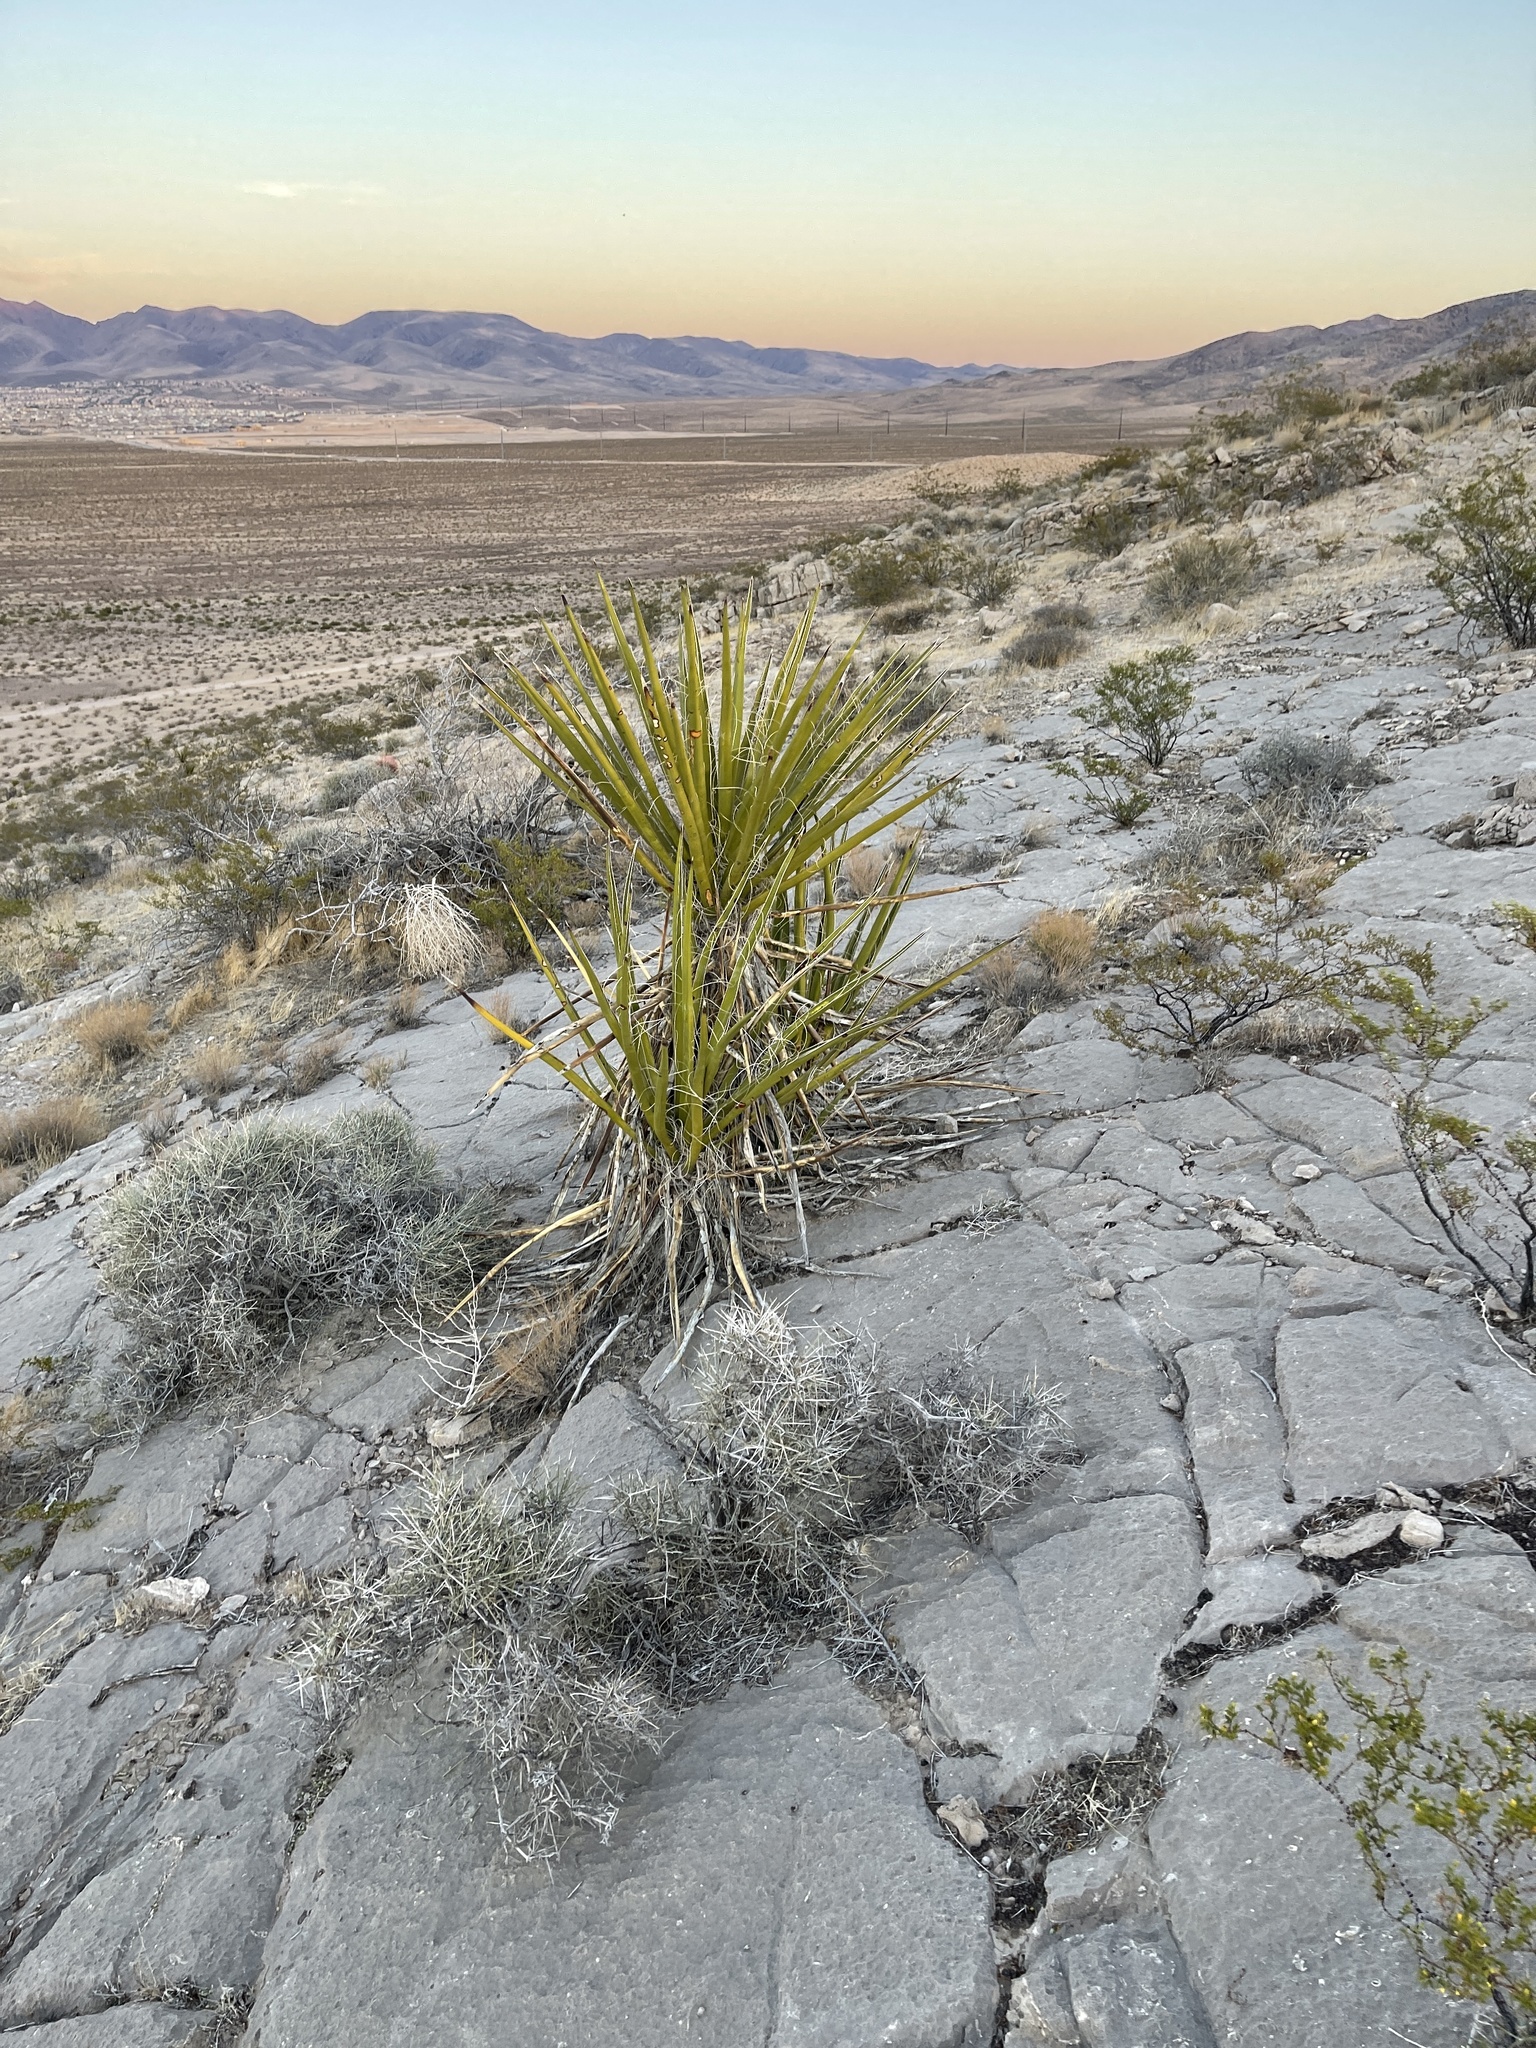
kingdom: Plantae
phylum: Tracheophyta
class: Liliopsida
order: Asparagales
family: Asparagaceae
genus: Yucca
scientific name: Yucca schidigera
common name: Mojave yucca
